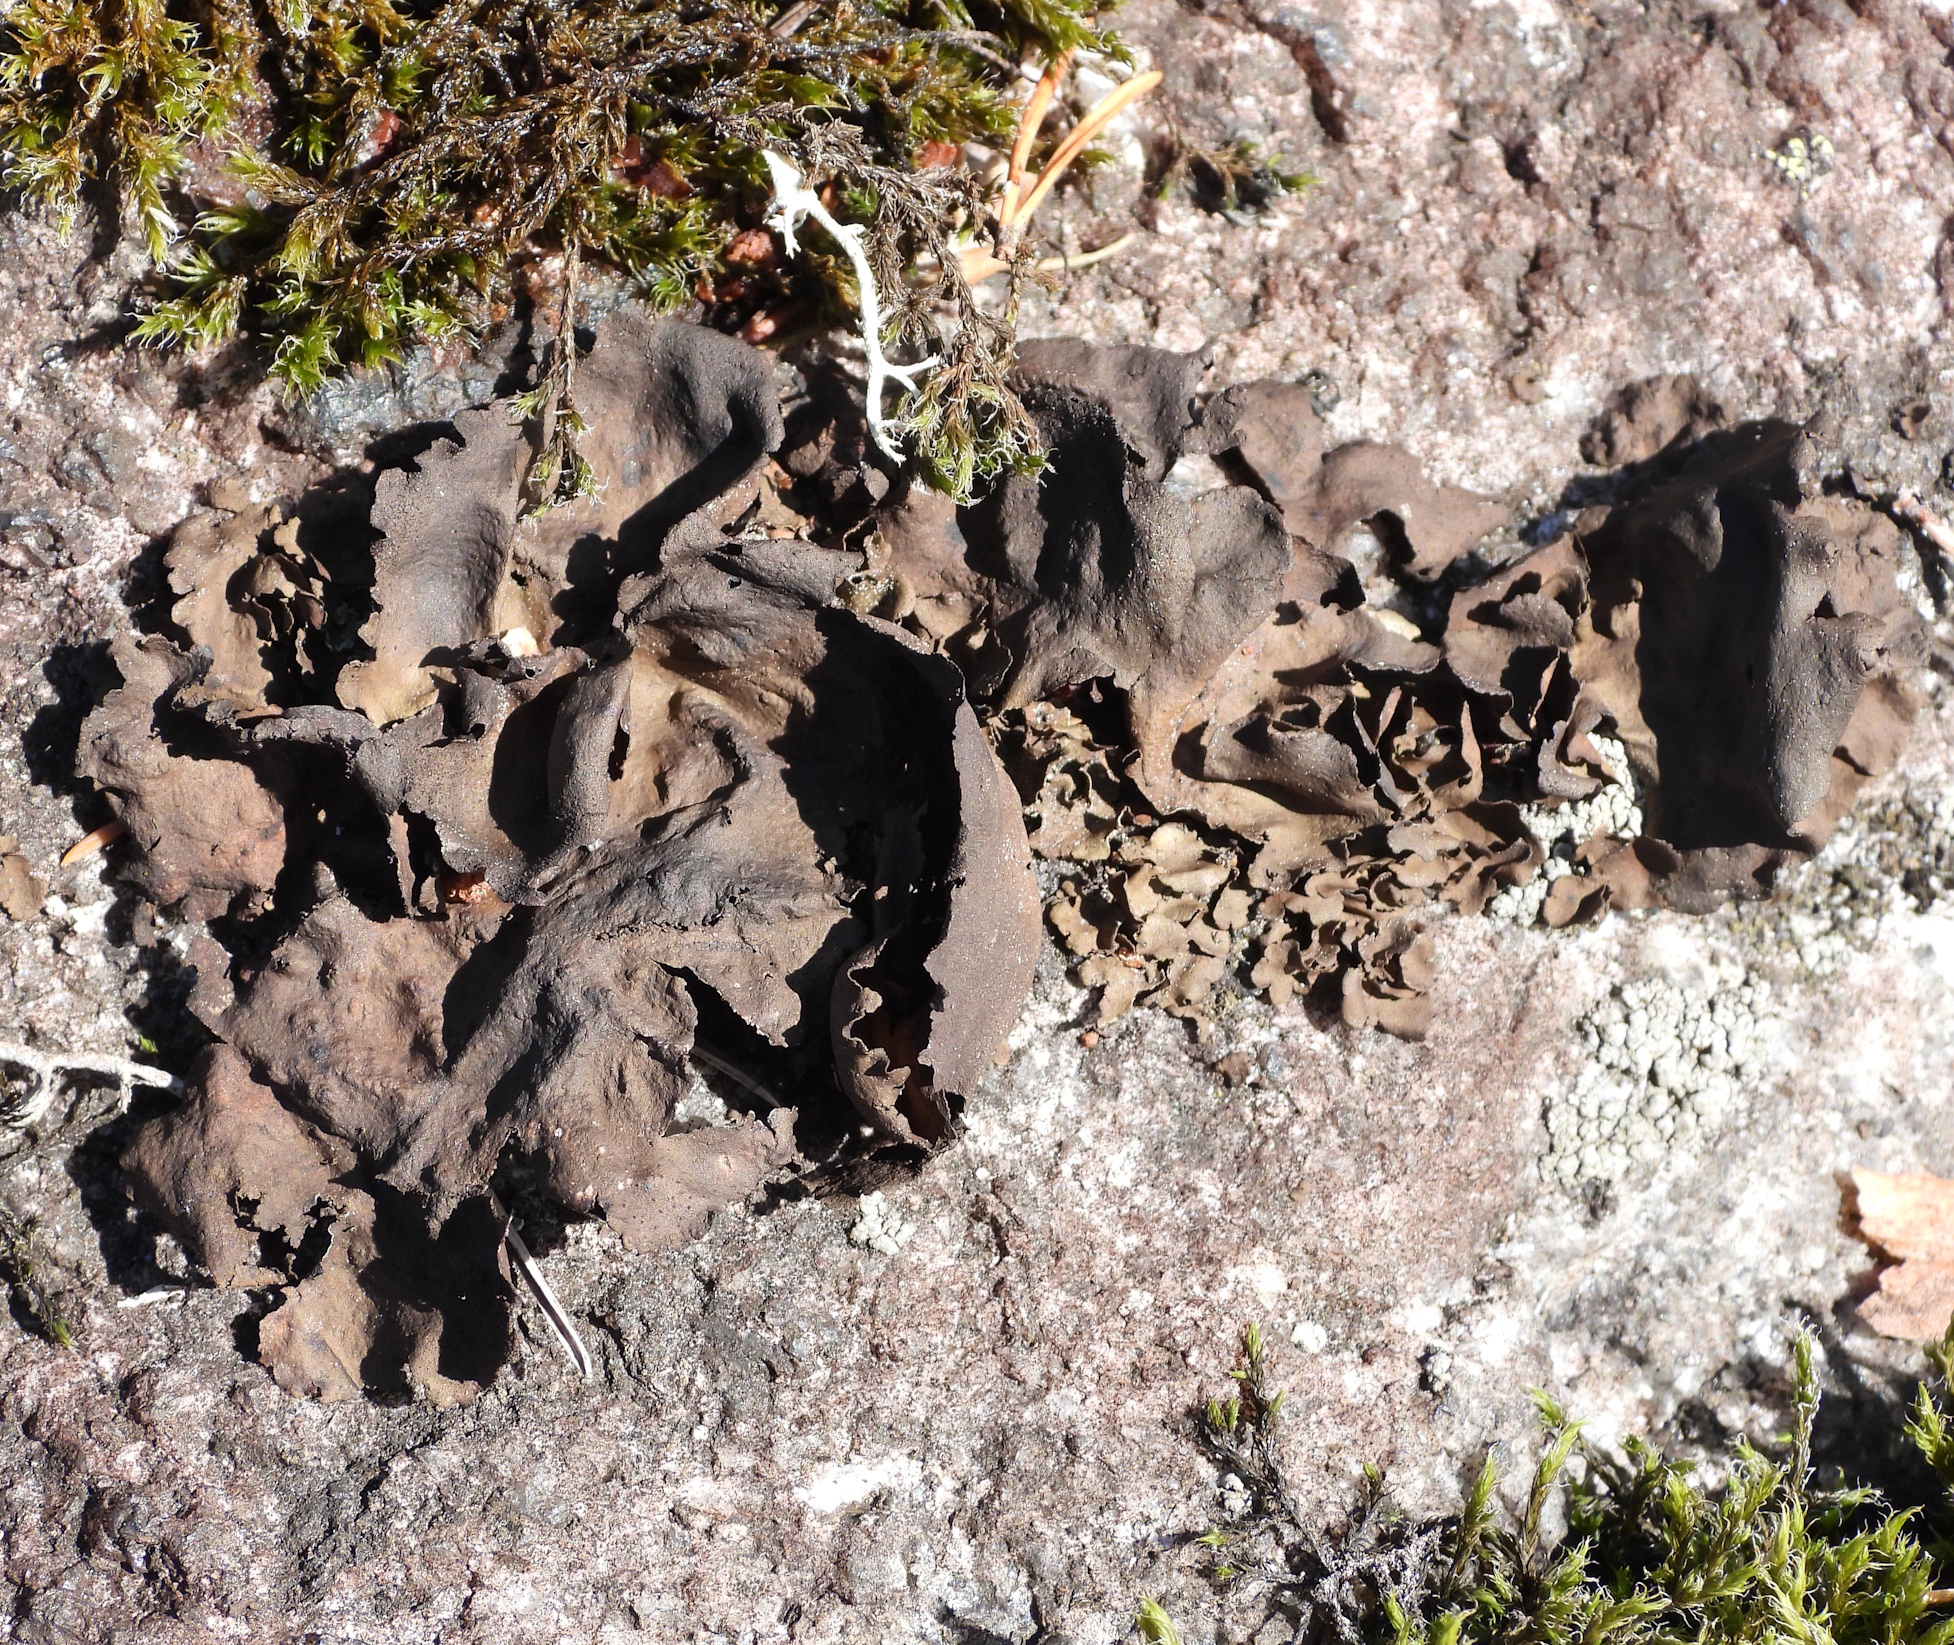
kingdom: Fungi
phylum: Ascomycota
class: Lecanoromycetes
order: Umbilicariales
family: Umbilicariaceae
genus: Umbilicaria
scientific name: Umbilicaria polyphylla
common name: Petalled rocktripe lichen
